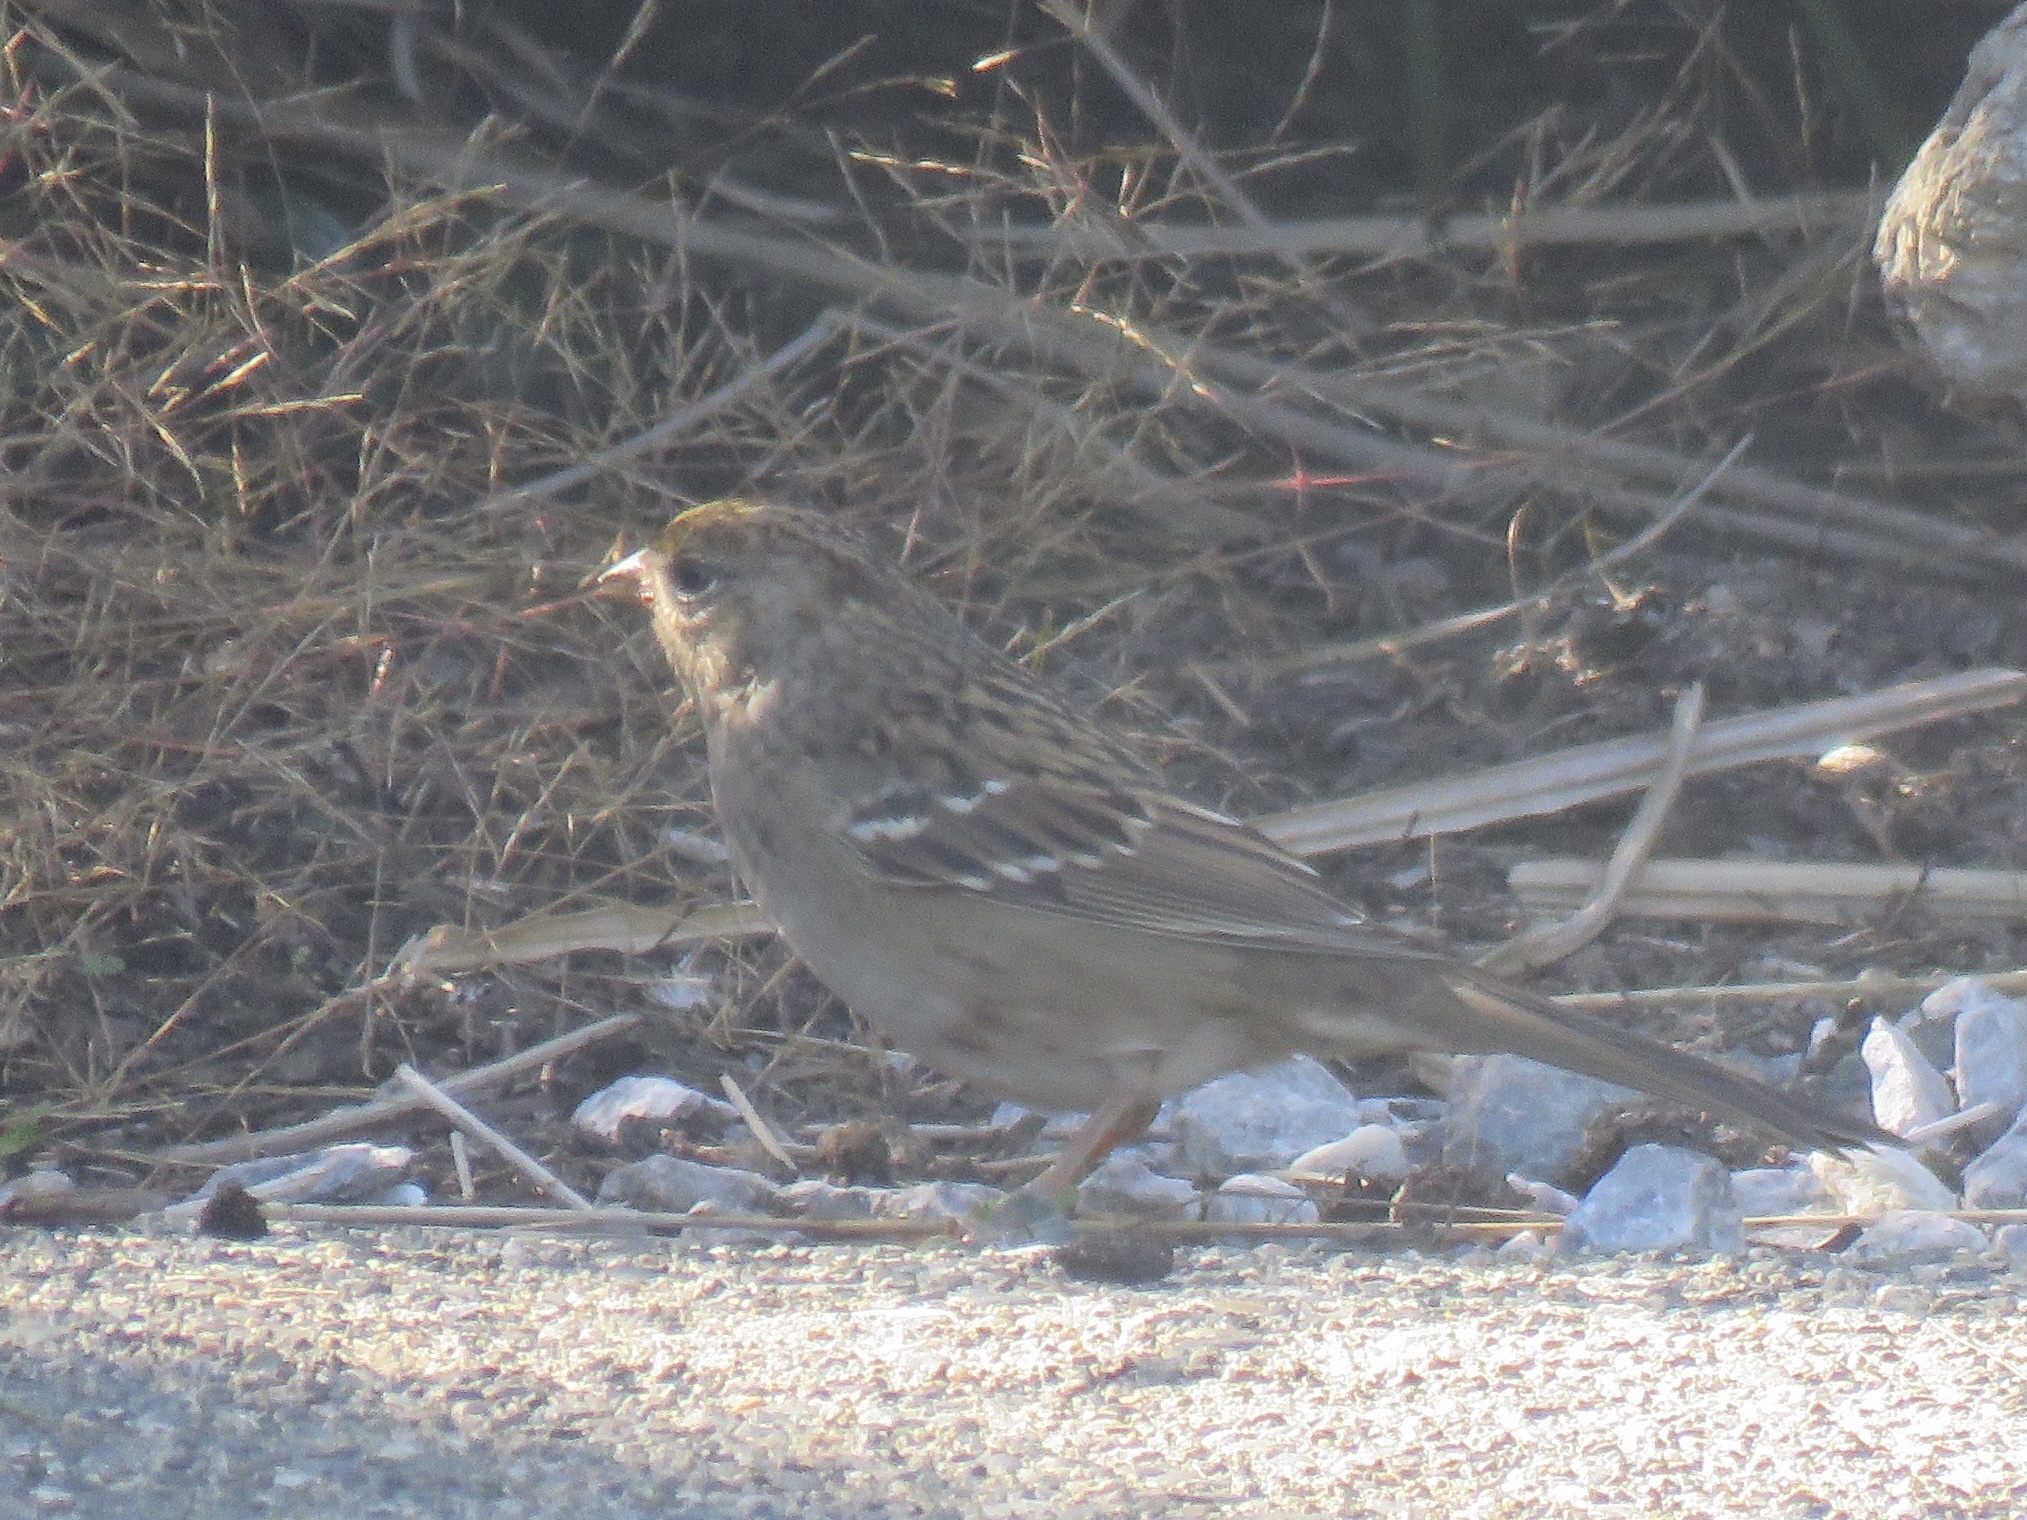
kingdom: Animalia
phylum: Chordata
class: Aves
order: Passeriformes
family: Passerellidae
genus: Zonotrichia
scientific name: Zonotrichia atricapilla
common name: Golden-crowned sparrow
